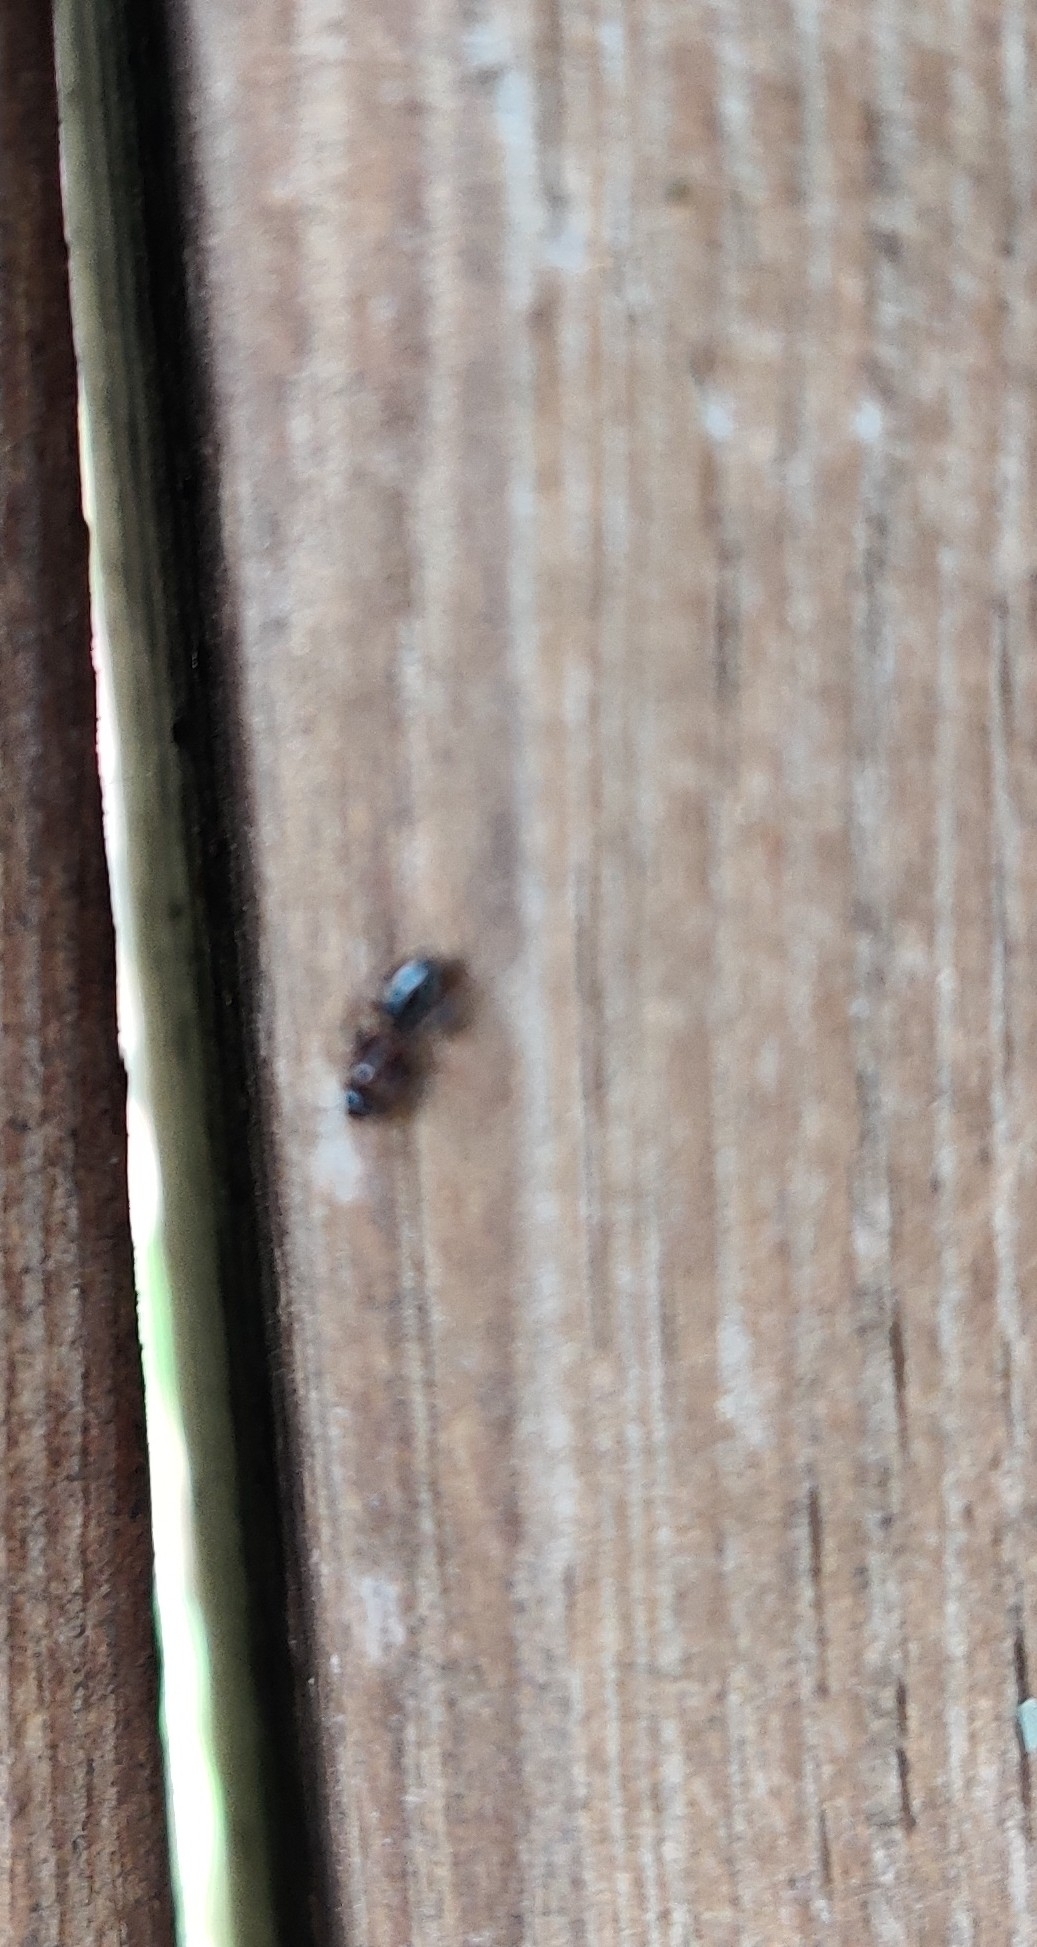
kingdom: Animalia
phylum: Arthropoda
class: Insecta
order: Hymenoptera
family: Formicidae
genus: Camponotus
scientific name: Camponotus truncatus
